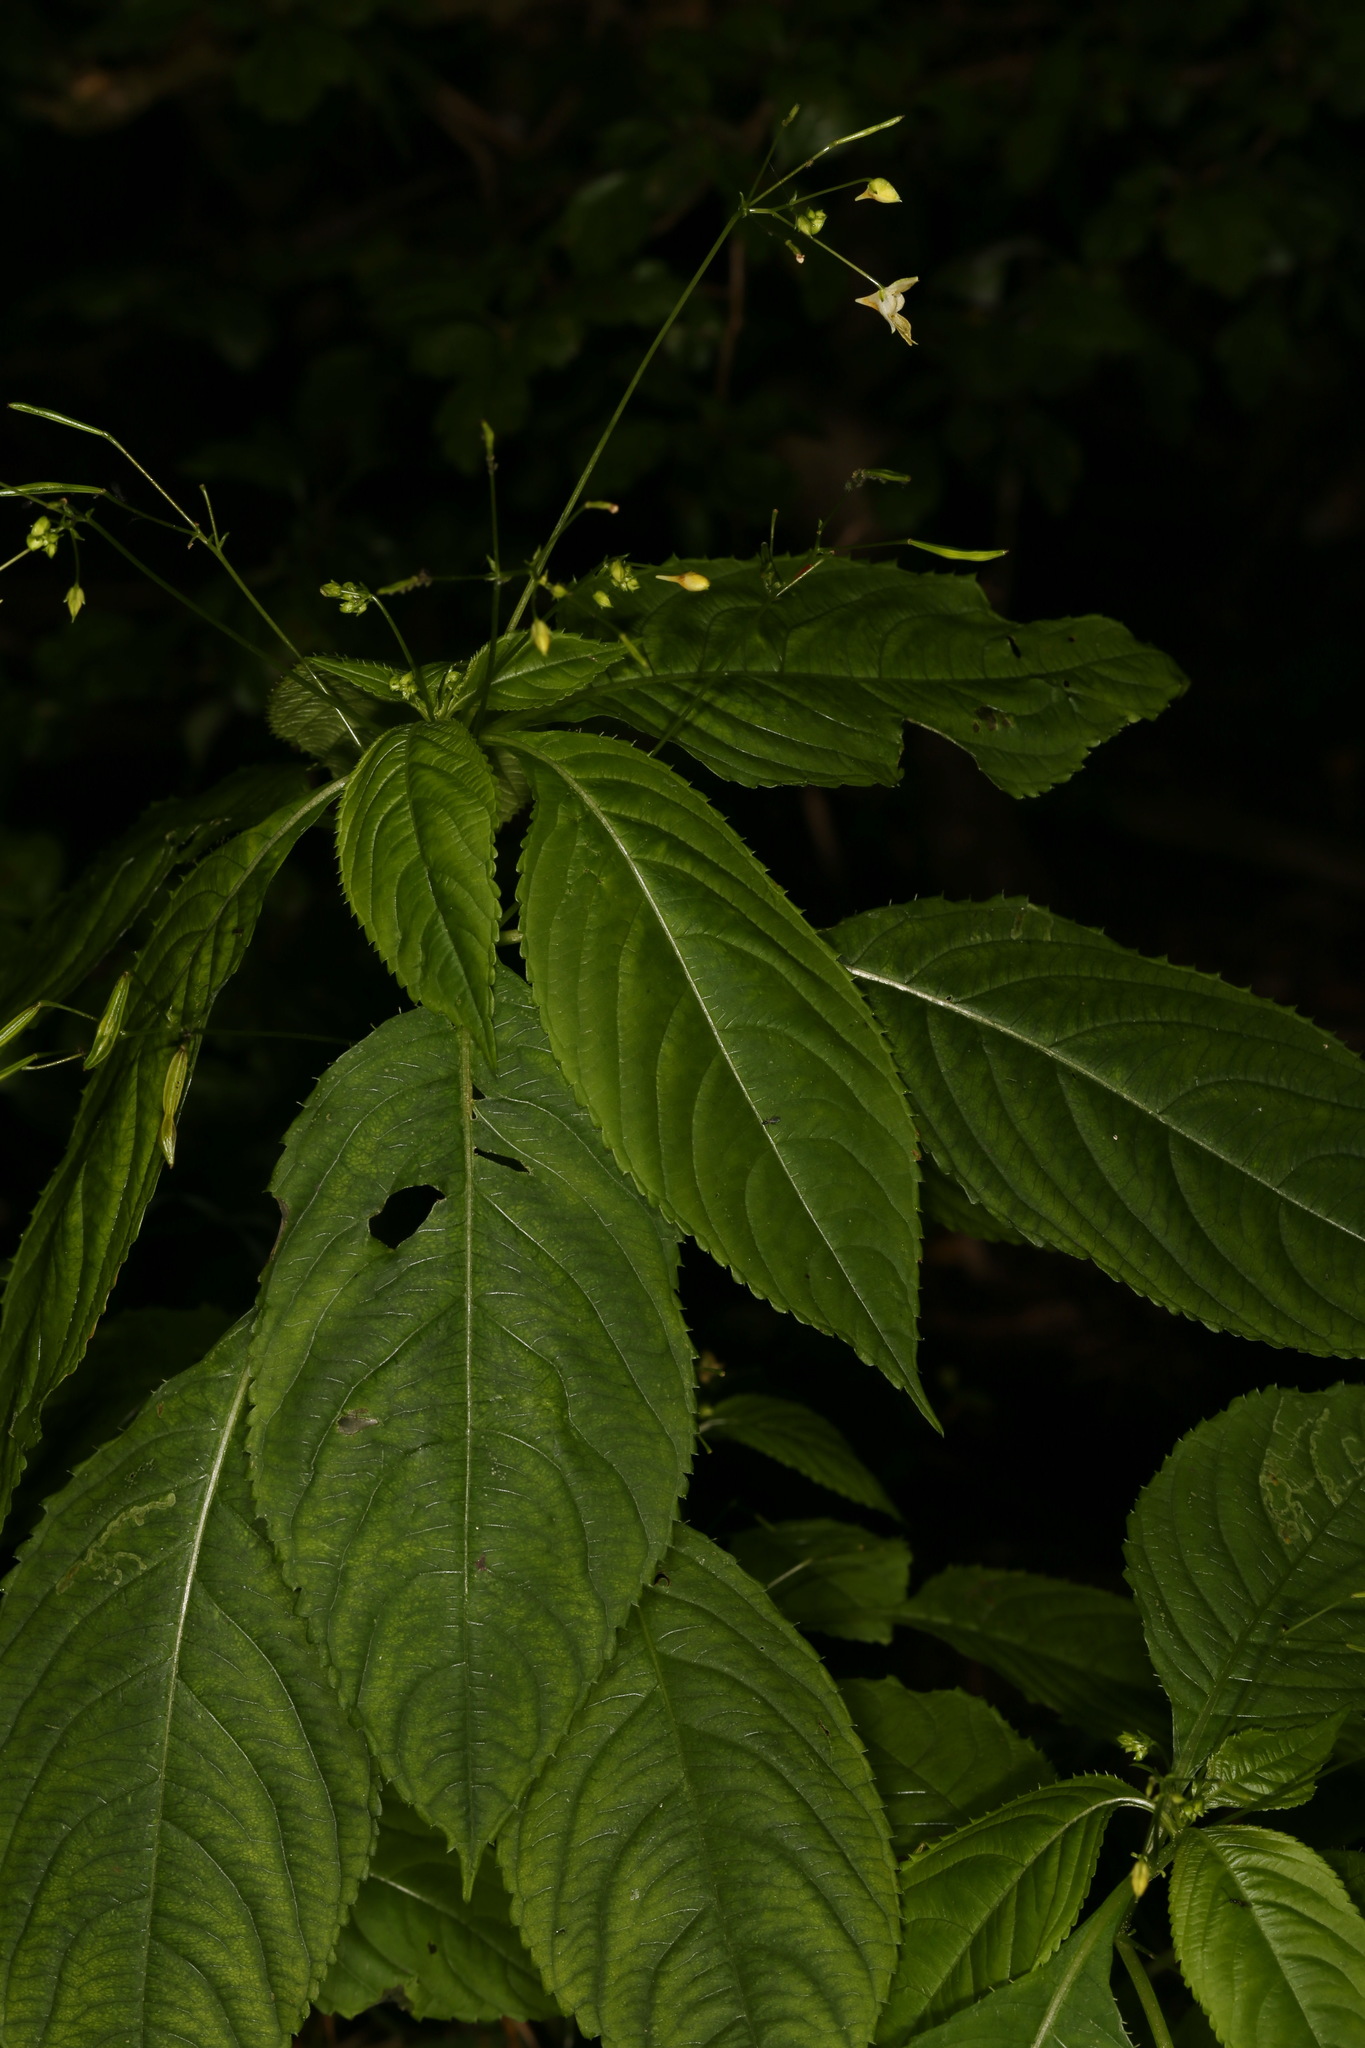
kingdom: Plantae
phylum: Tracheophyta
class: Magnoliopsida
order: Ericales
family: Balsaminaceae
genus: Impatiens
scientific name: Impatiens parviflora
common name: Small balsam
